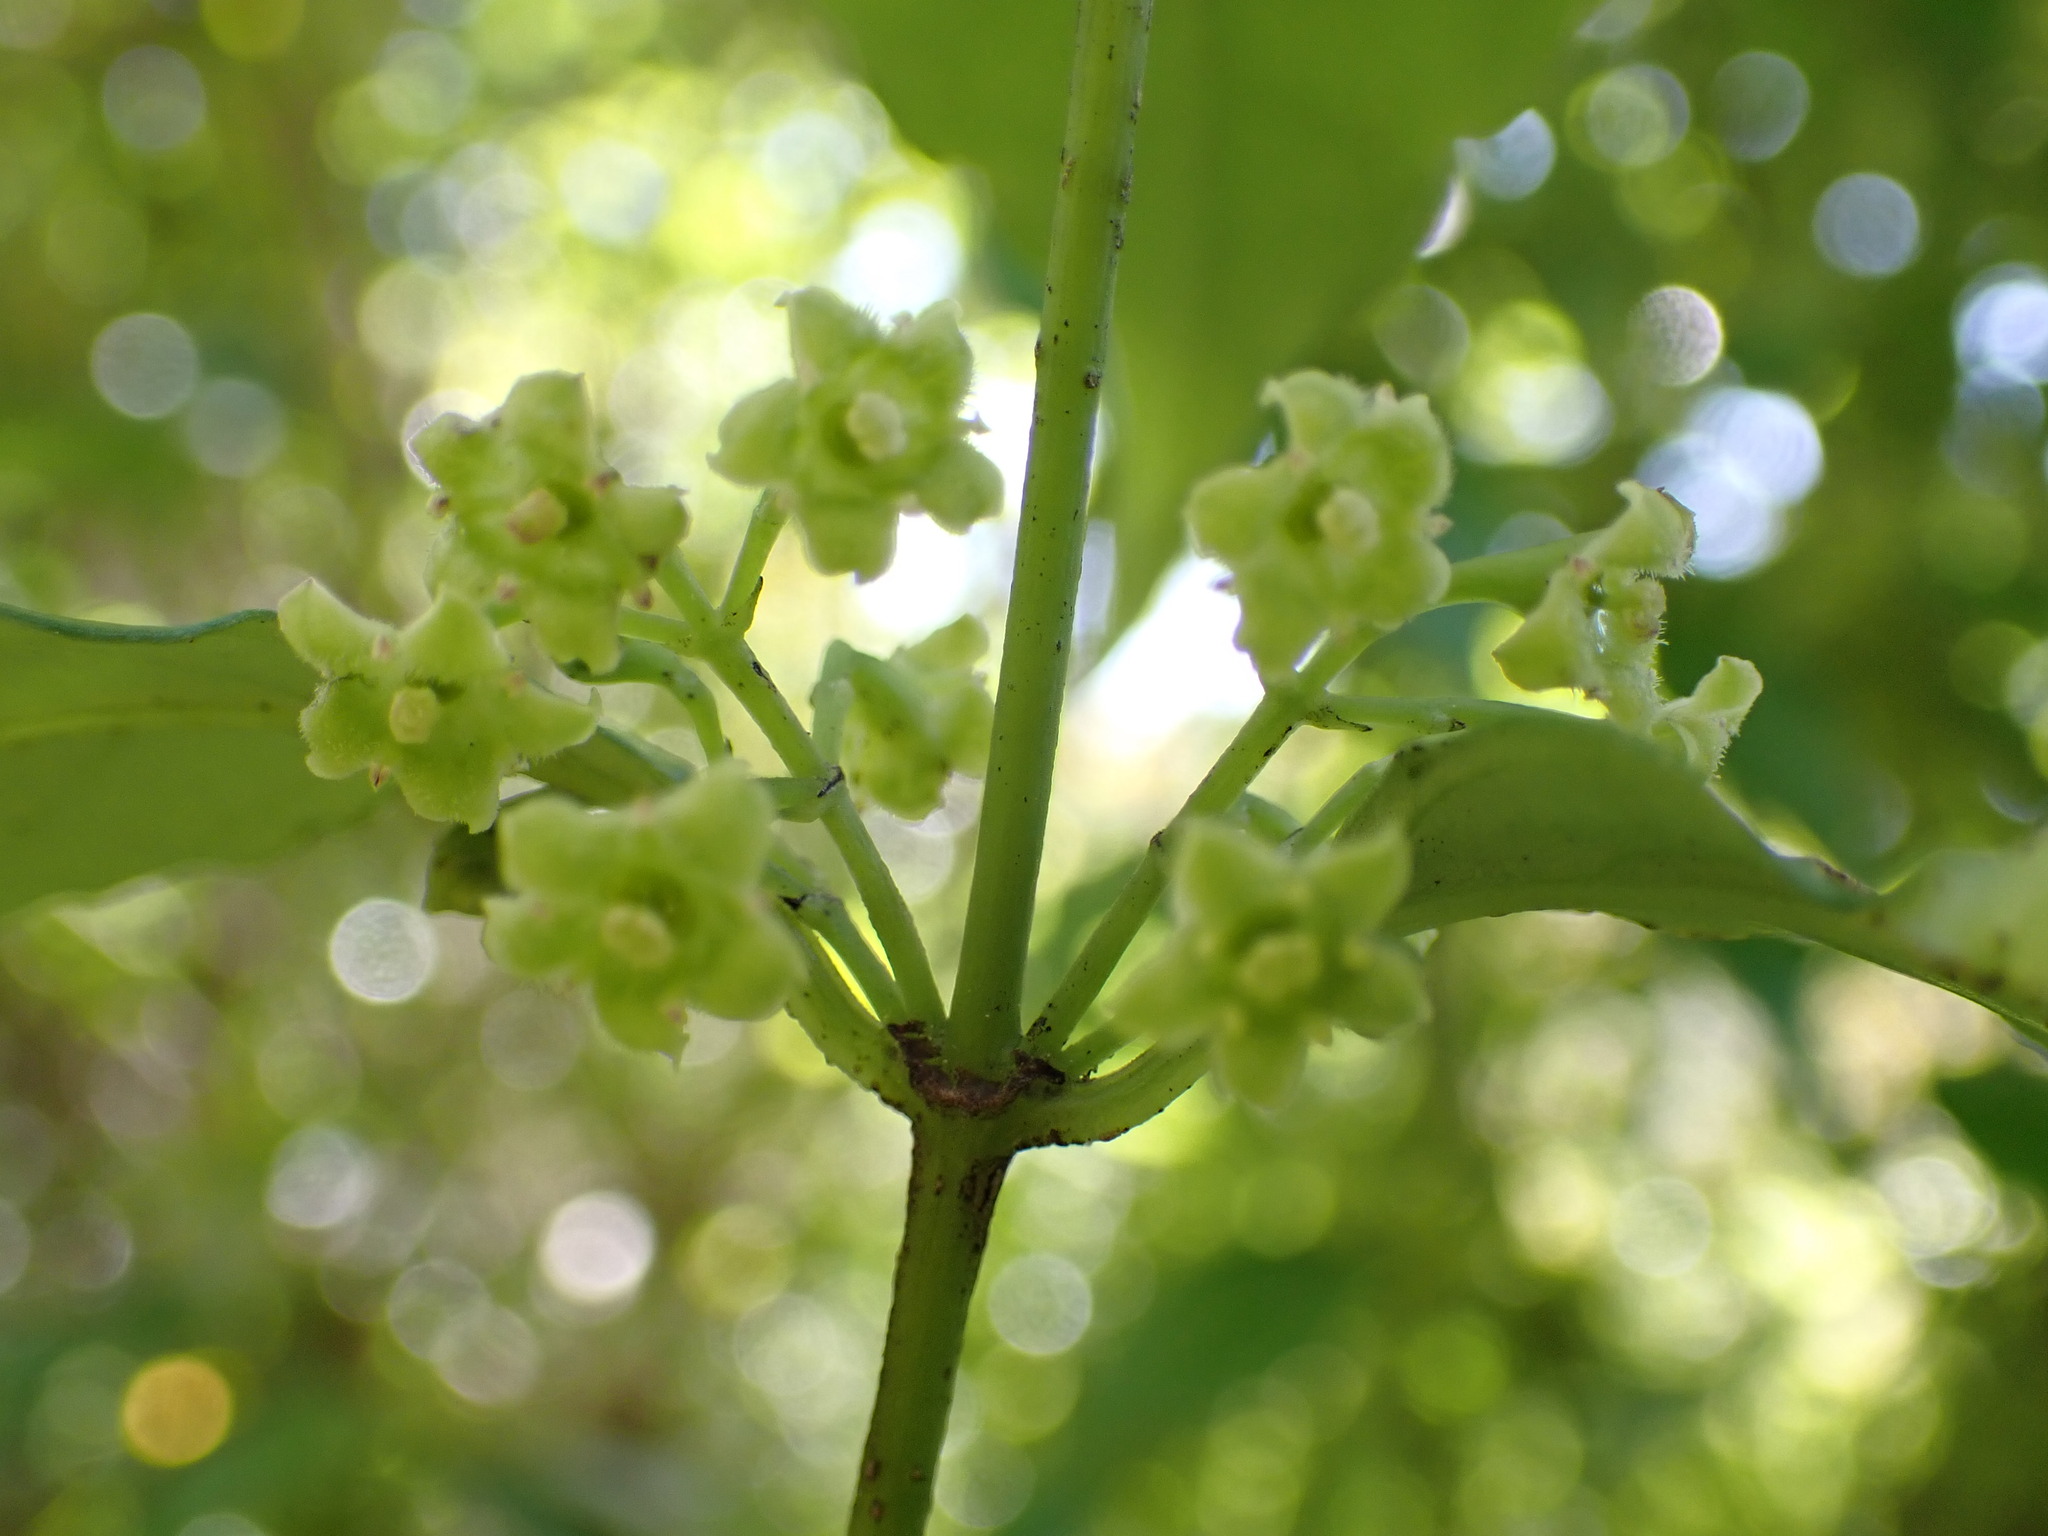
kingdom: Plantae
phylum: Tracheophyta
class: Magnoliopsida
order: Gentianales
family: Loganiaceae
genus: Geniostoma
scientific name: Geniostoma ligustrifolium
